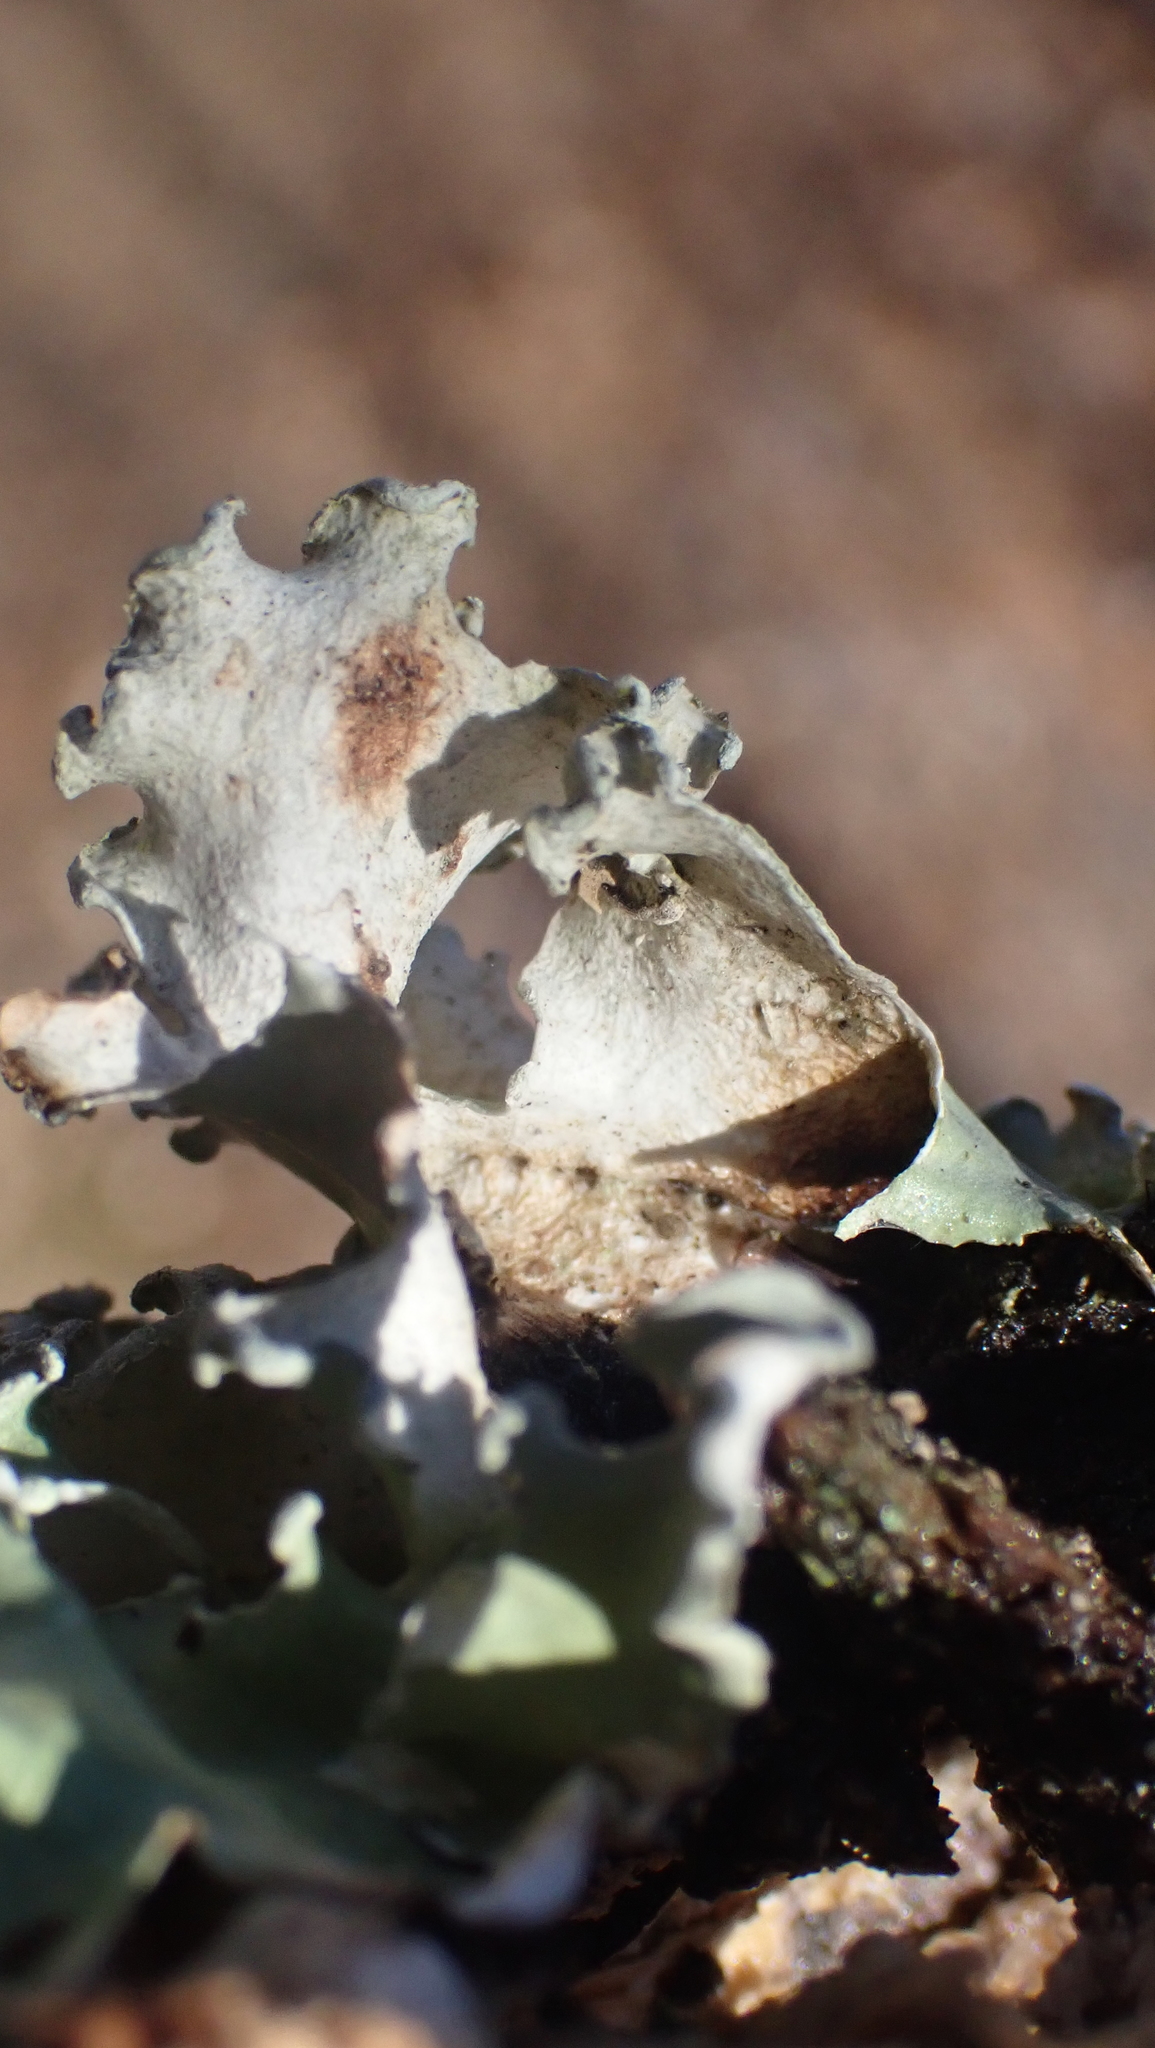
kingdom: Fungi
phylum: Ascomycota
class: Lecanoromycetes
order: Lecanorales
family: Parmeliaceae
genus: Parmotrema
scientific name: Parmotrema austrosinense
